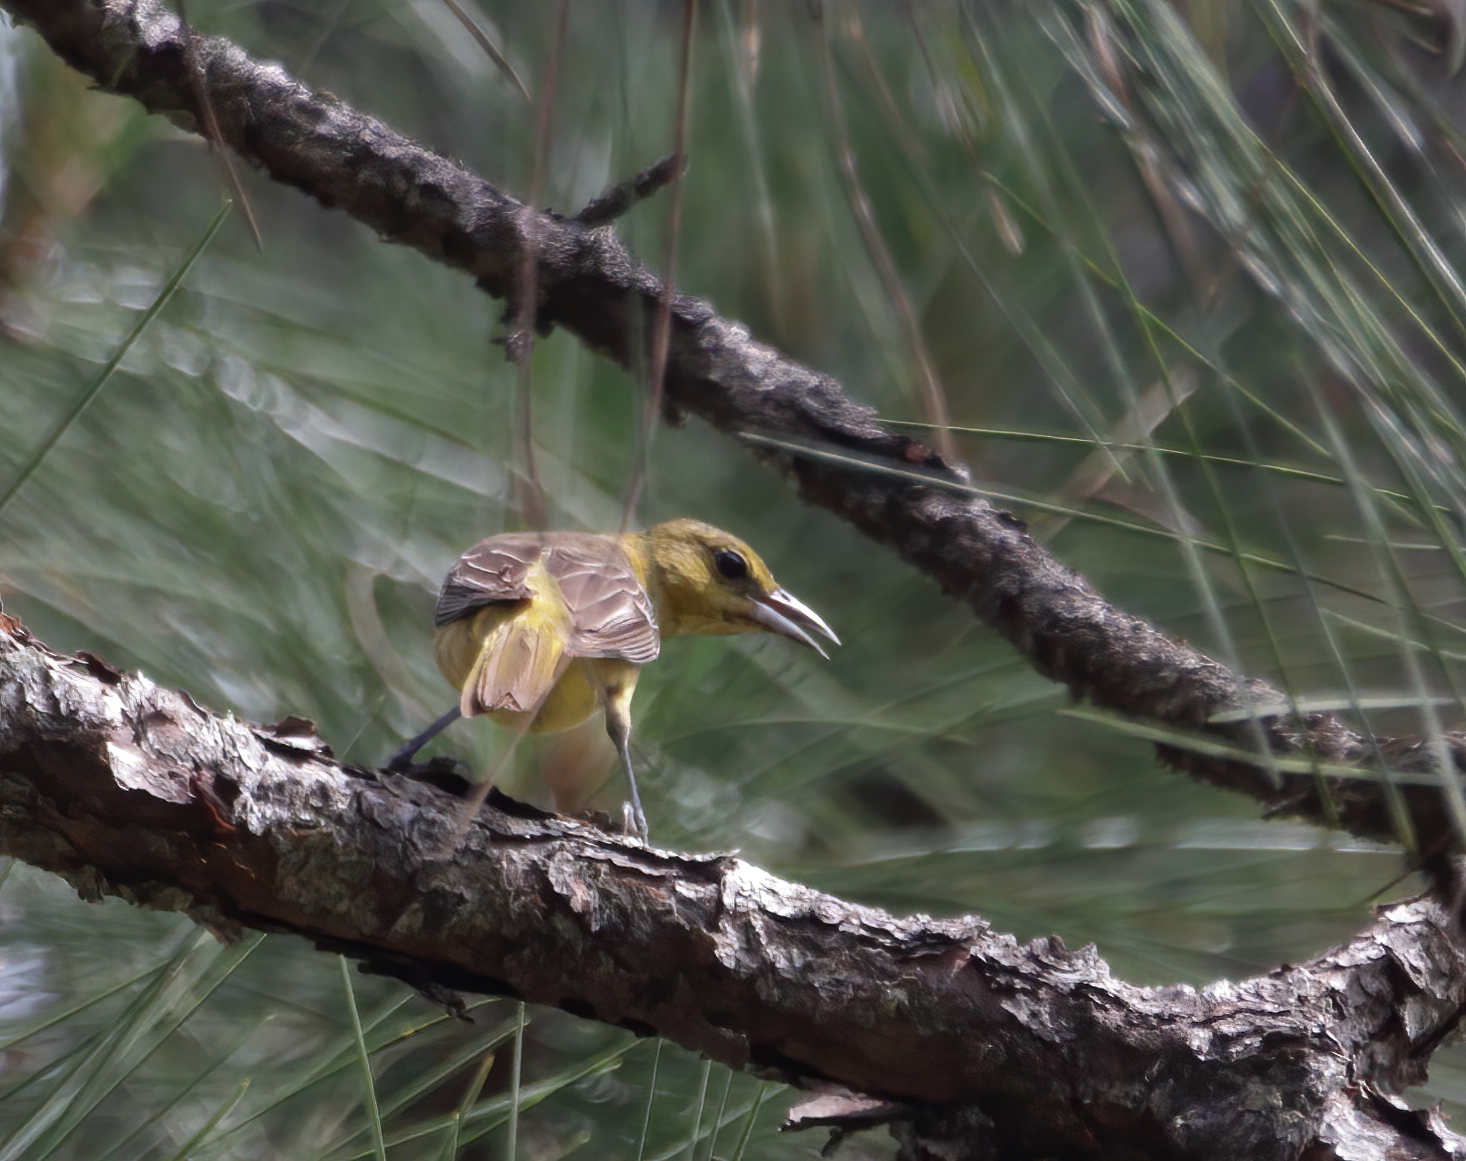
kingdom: Animalia
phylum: Chordata
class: Aves
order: Passeriformes
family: Icteridae
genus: Icterus
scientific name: Icterus spurius
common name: Orchard oriole
